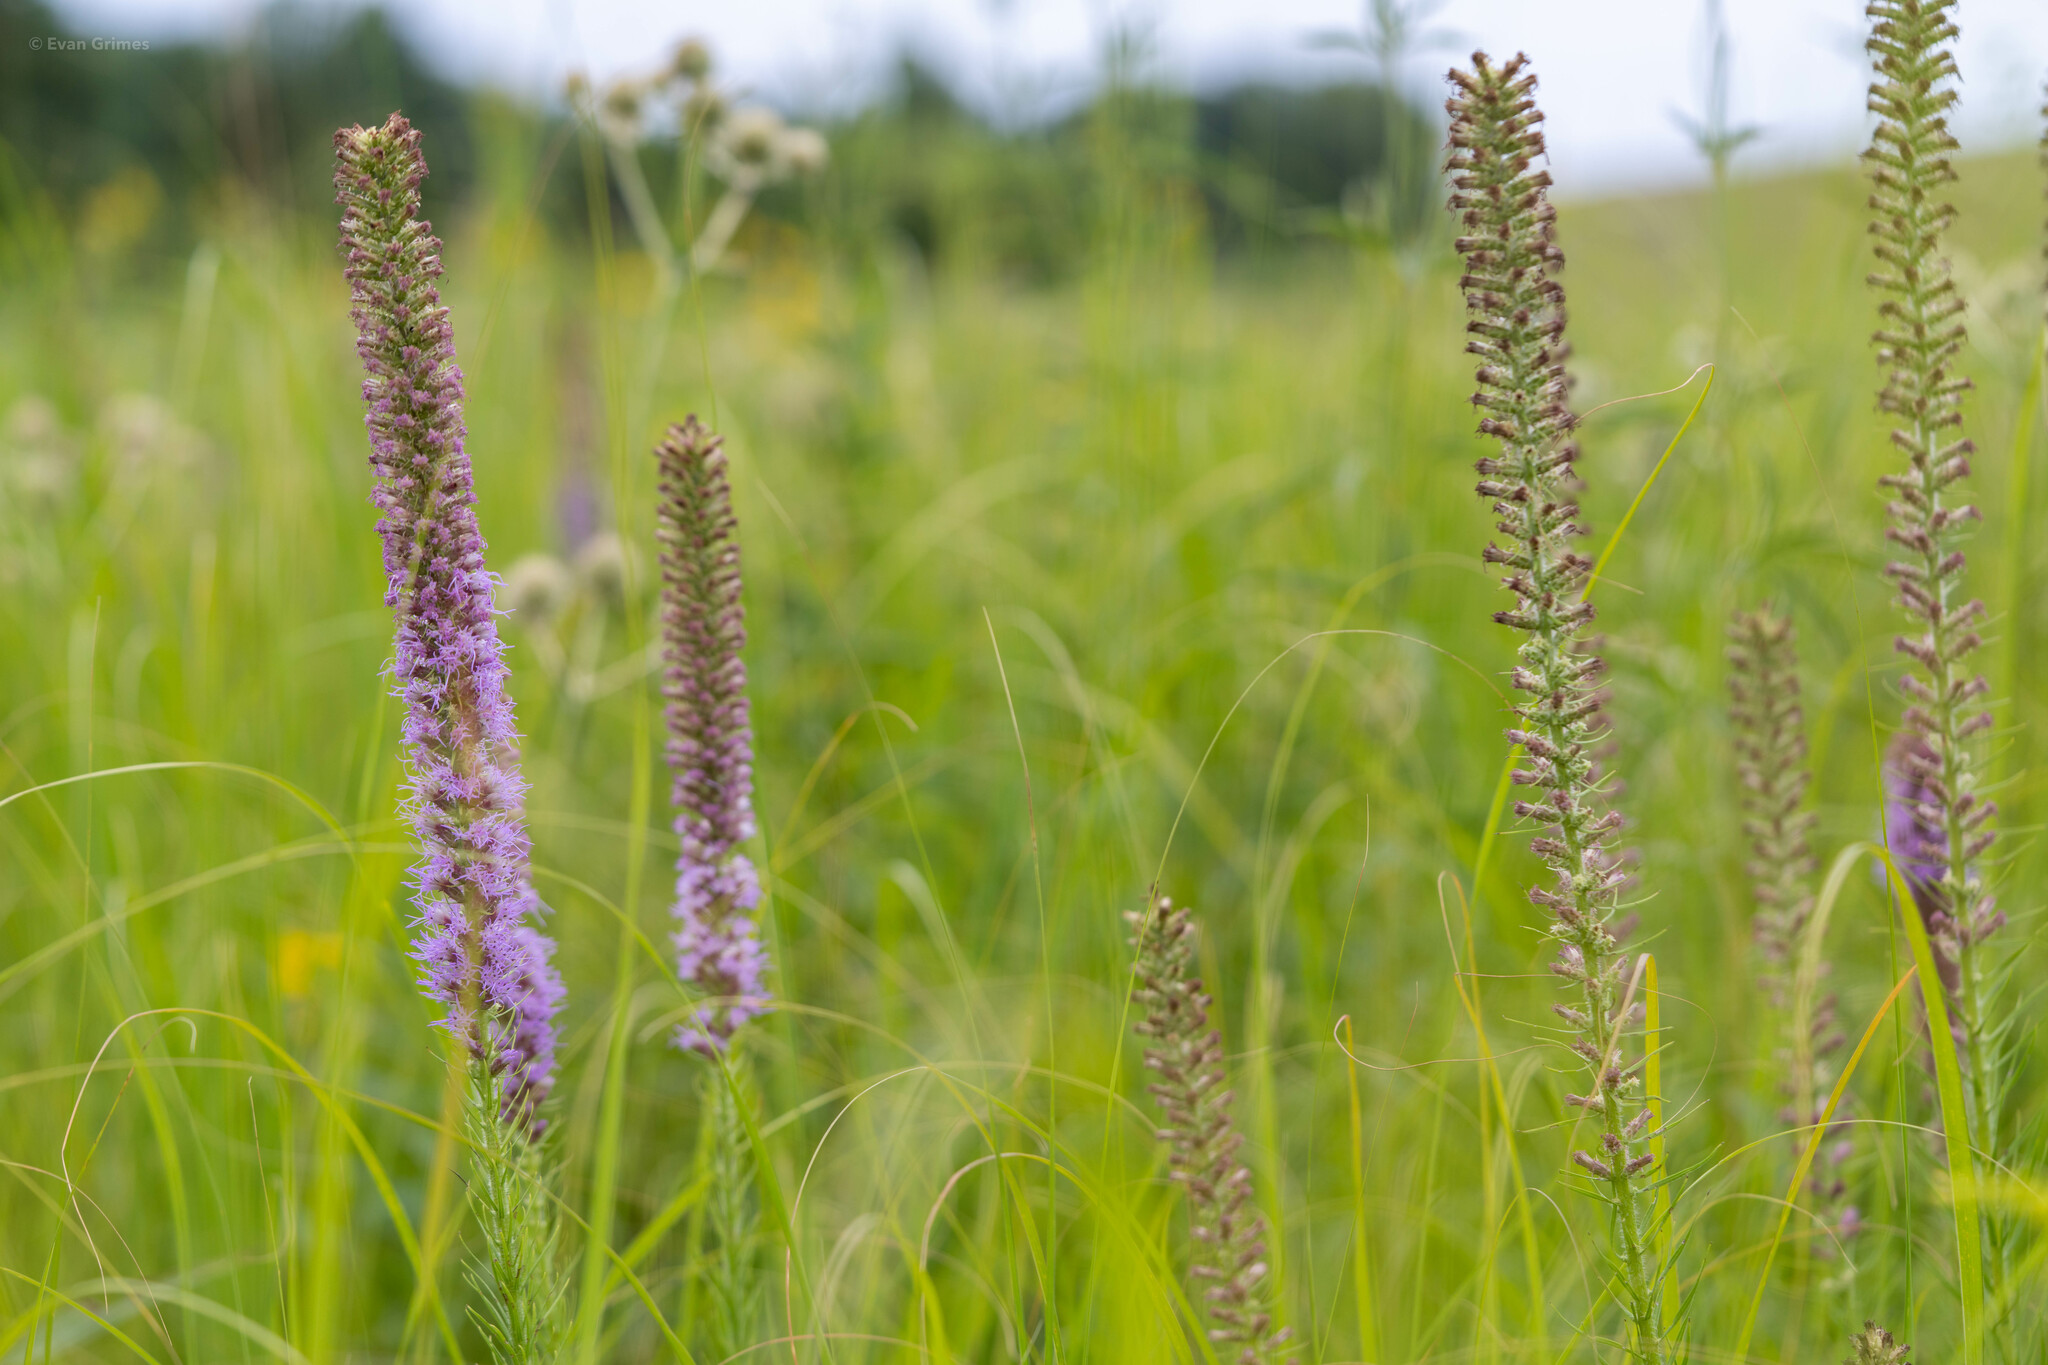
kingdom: Plantae
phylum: Tracheophyta
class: Magnoliopsida
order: Asterales
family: Asteraceae
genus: Liatris
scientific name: Liatris pycnostachya
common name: Cattail gayfeather
